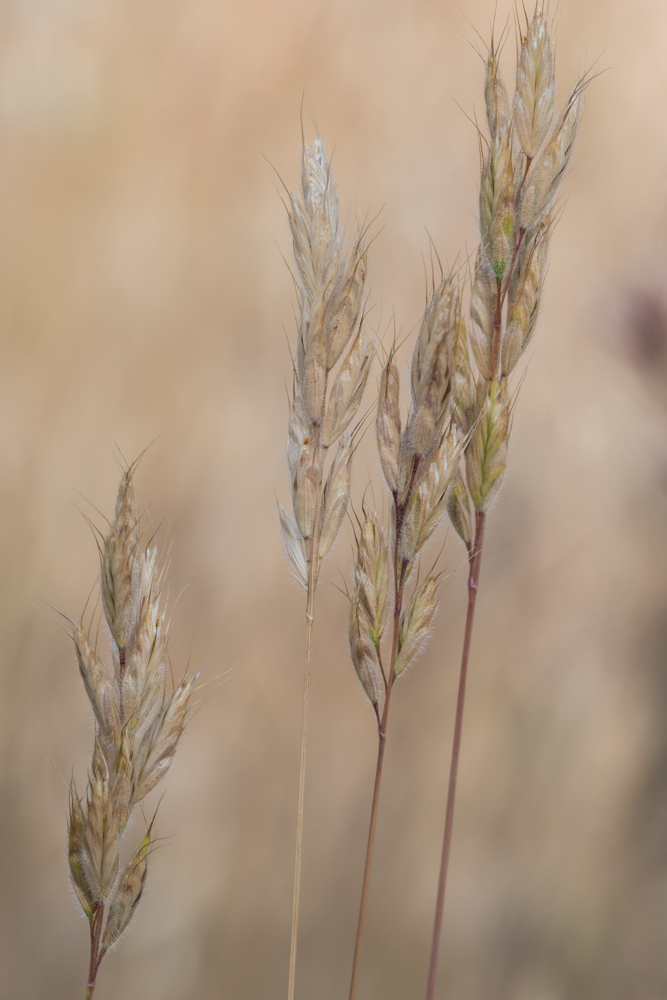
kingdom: Plantae
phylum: Tracheophyta
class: Liliopsida
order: Poales
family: Poaceae
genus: Bromus
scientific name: Bromus hordeaceus
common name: Soft brome
